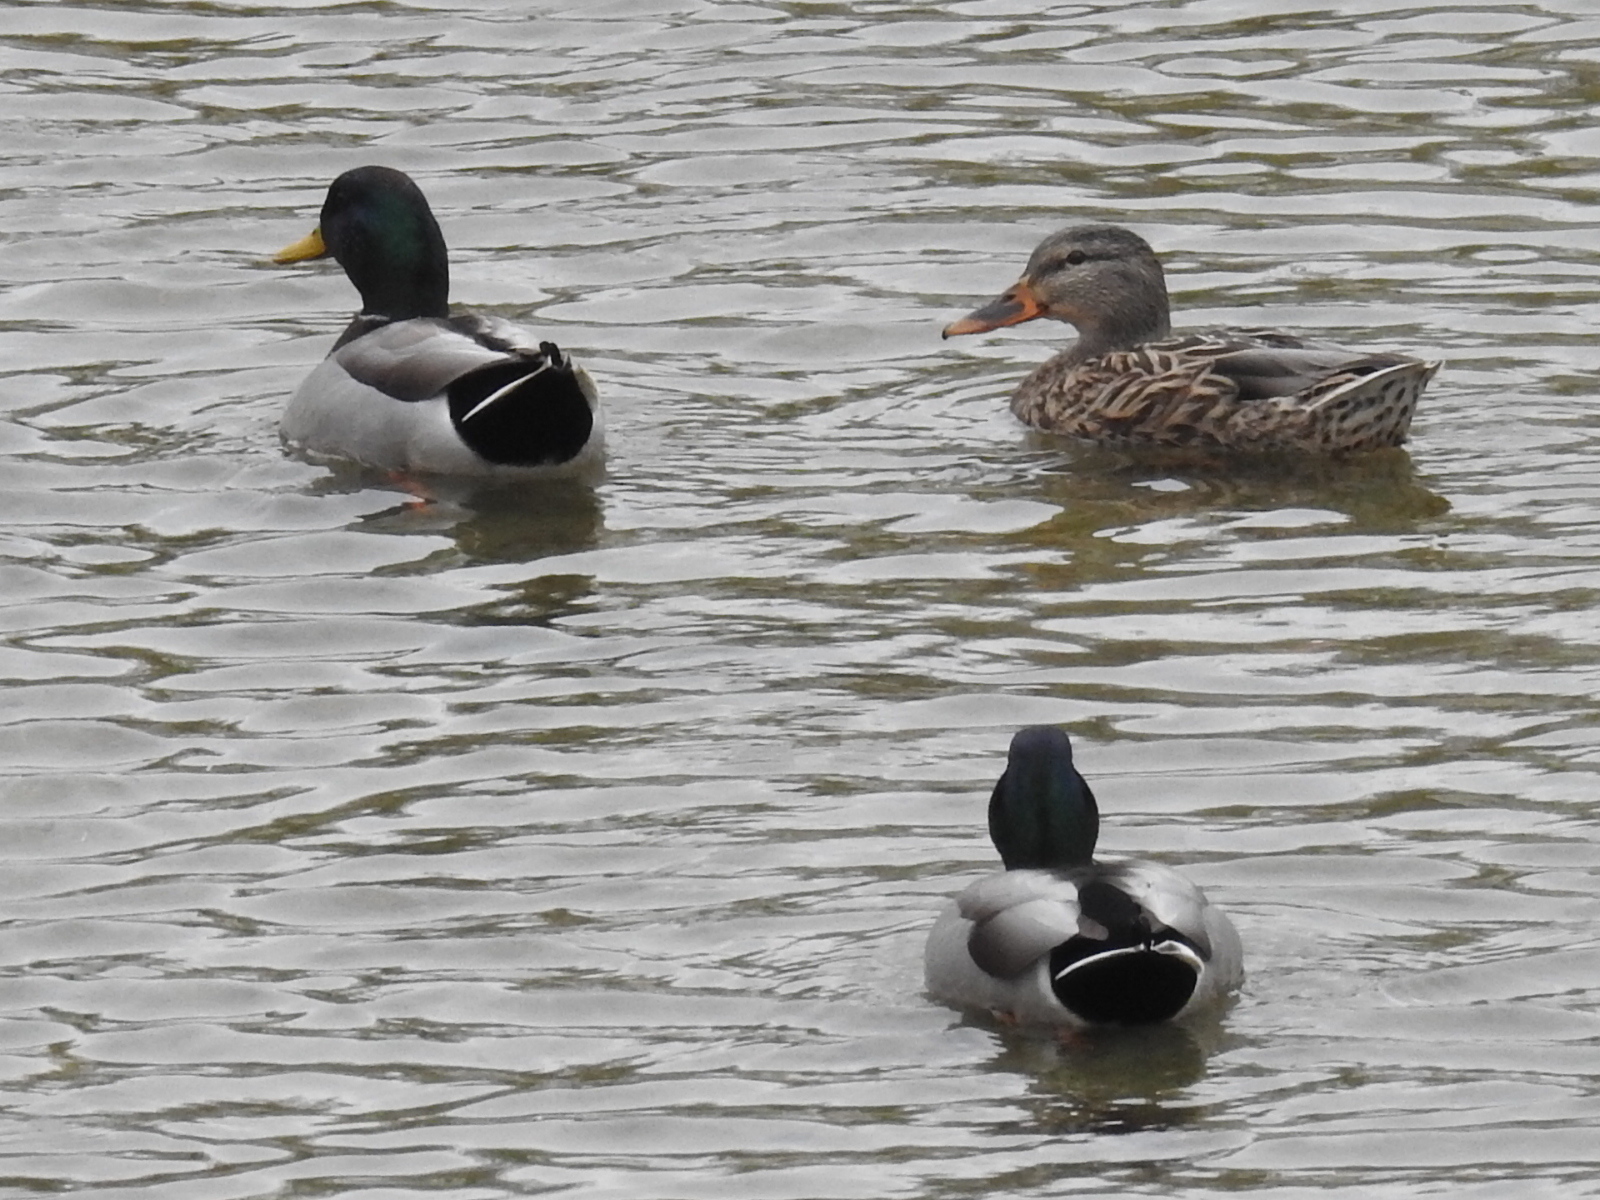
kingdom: Animalia
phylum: Chordata
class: Aves
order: Anseriformes
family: Anatidae
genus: Anas
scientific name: Anas platyrhynchos
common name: Mallard
